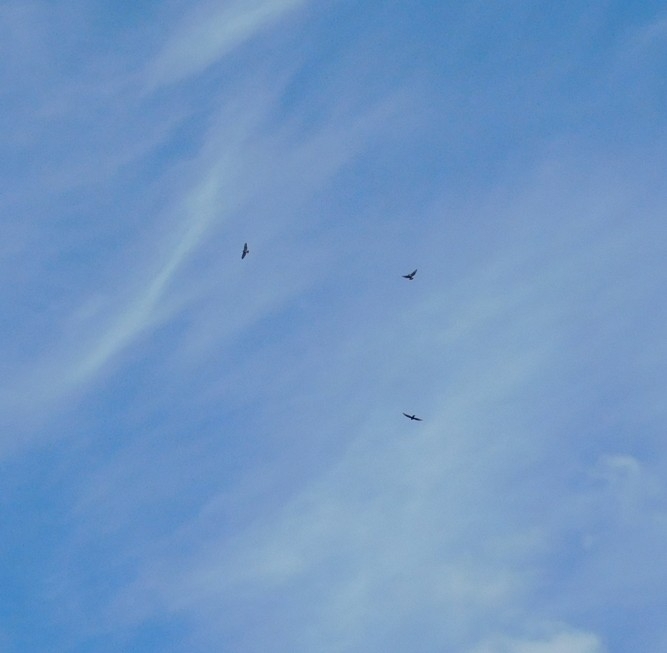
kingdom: Animalia
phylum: Chordata
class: Aves
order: Accipitriformes
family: Accipitridae
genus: Buteo
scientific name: Buteo buteo
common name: Common buzzard
